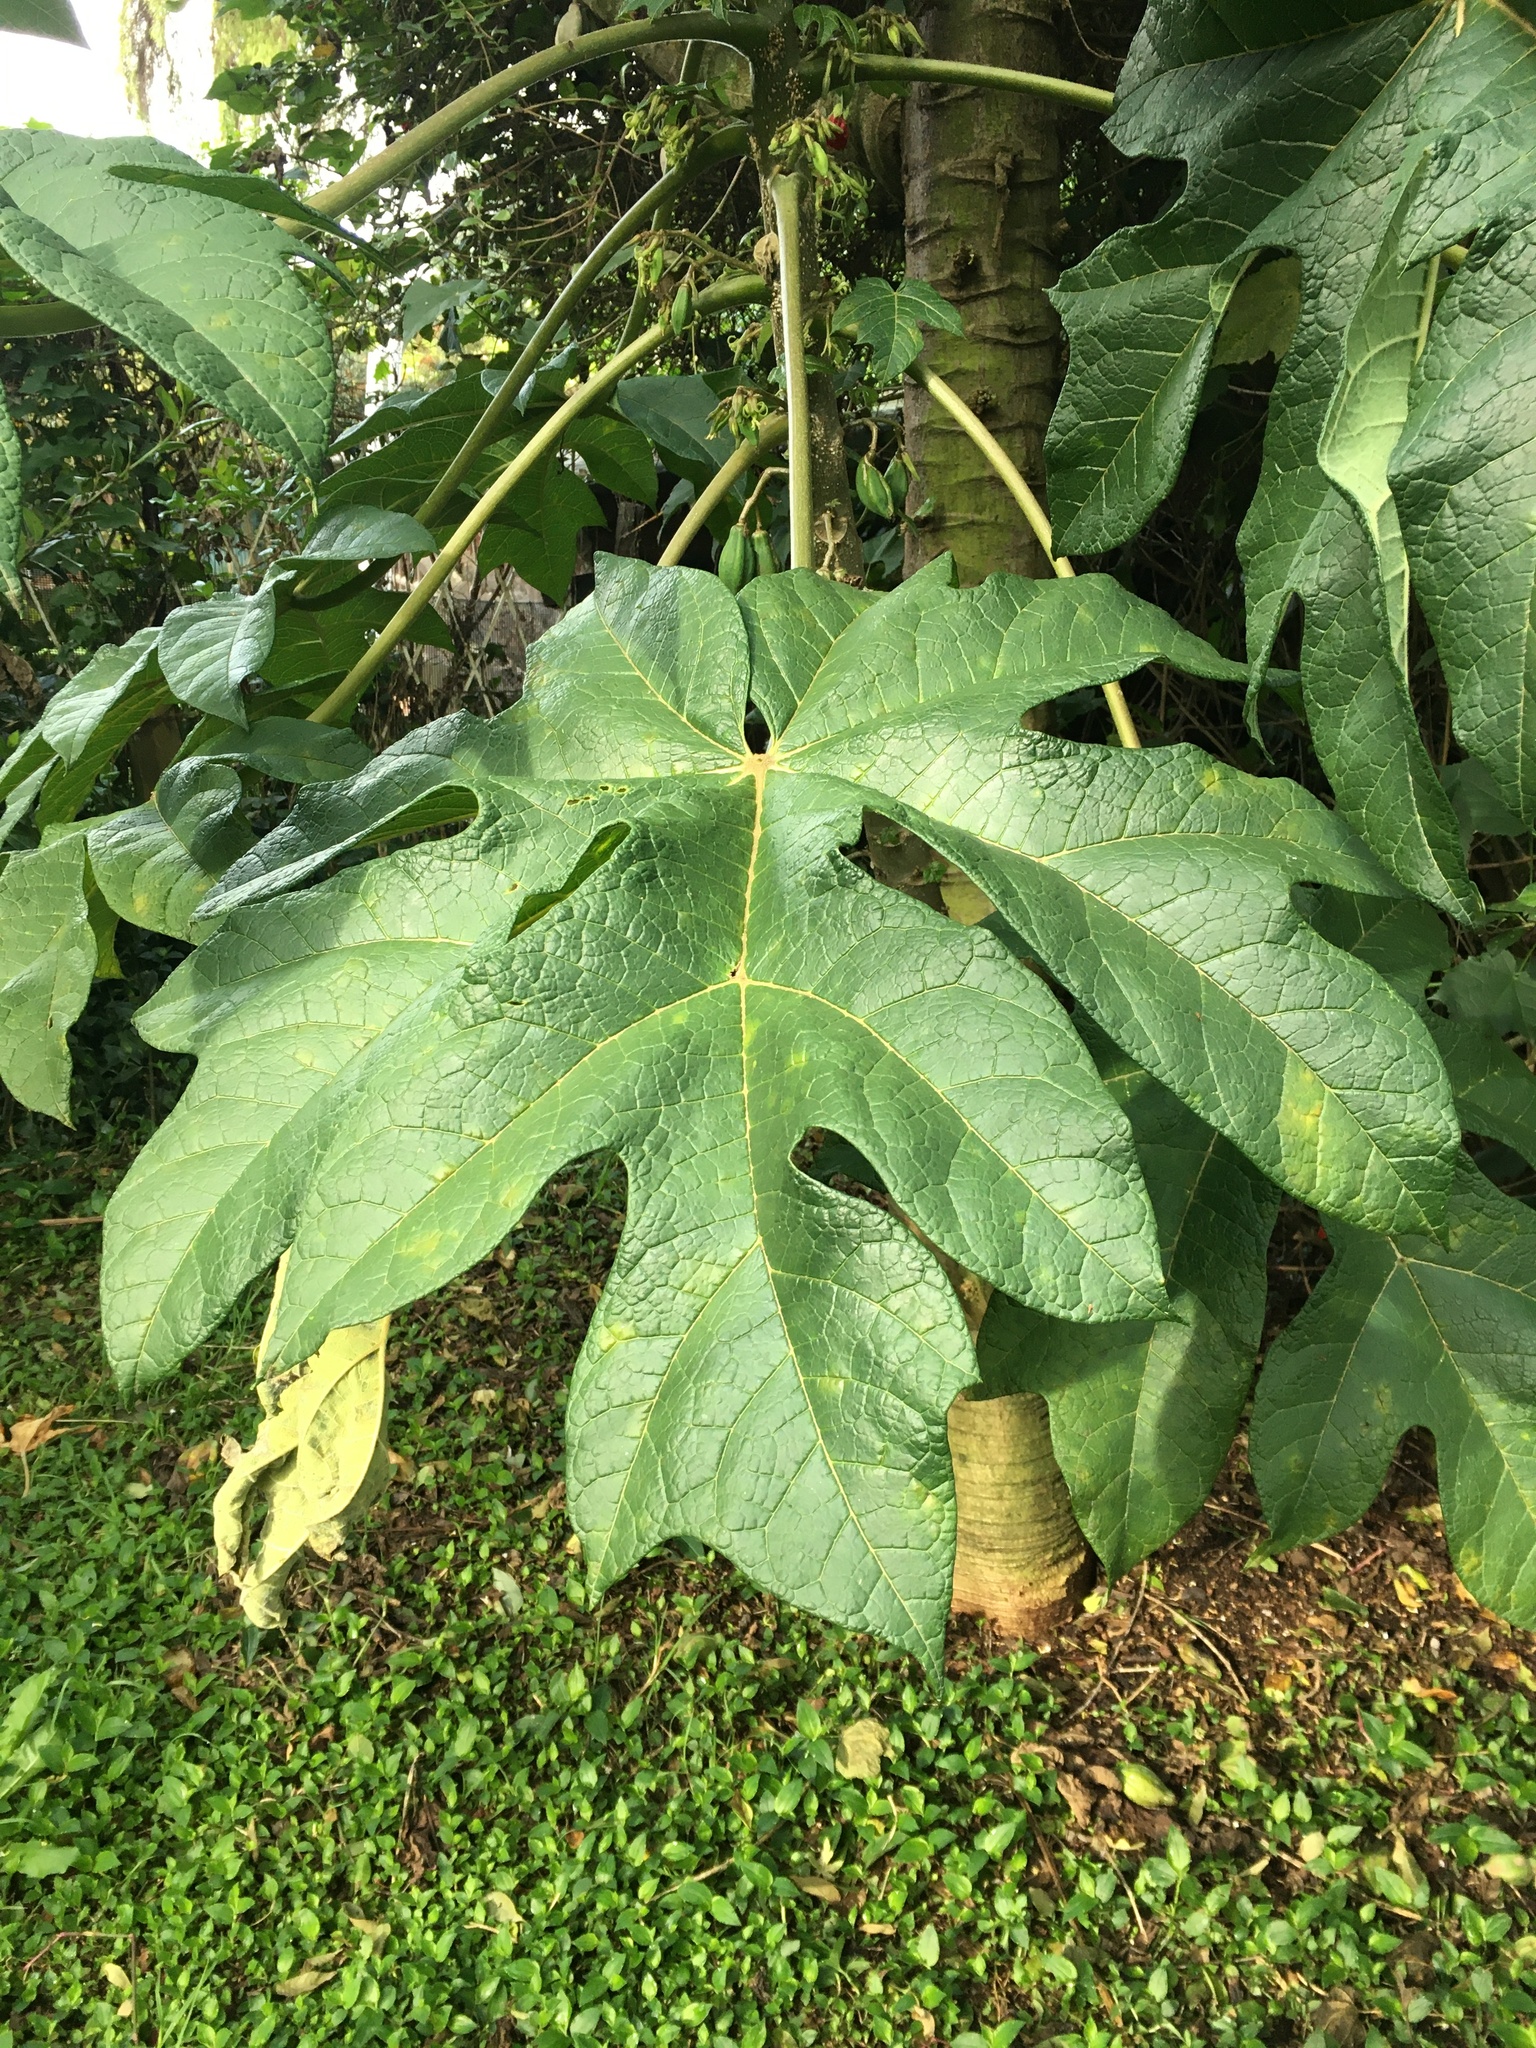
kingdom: Plantae
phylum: Tracheophyta
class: Magnoliopsida
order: Brassicales
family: Caricaceae
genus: Vasconcellea
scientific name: Vasconcellea pubescens
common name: Mountain papaya
